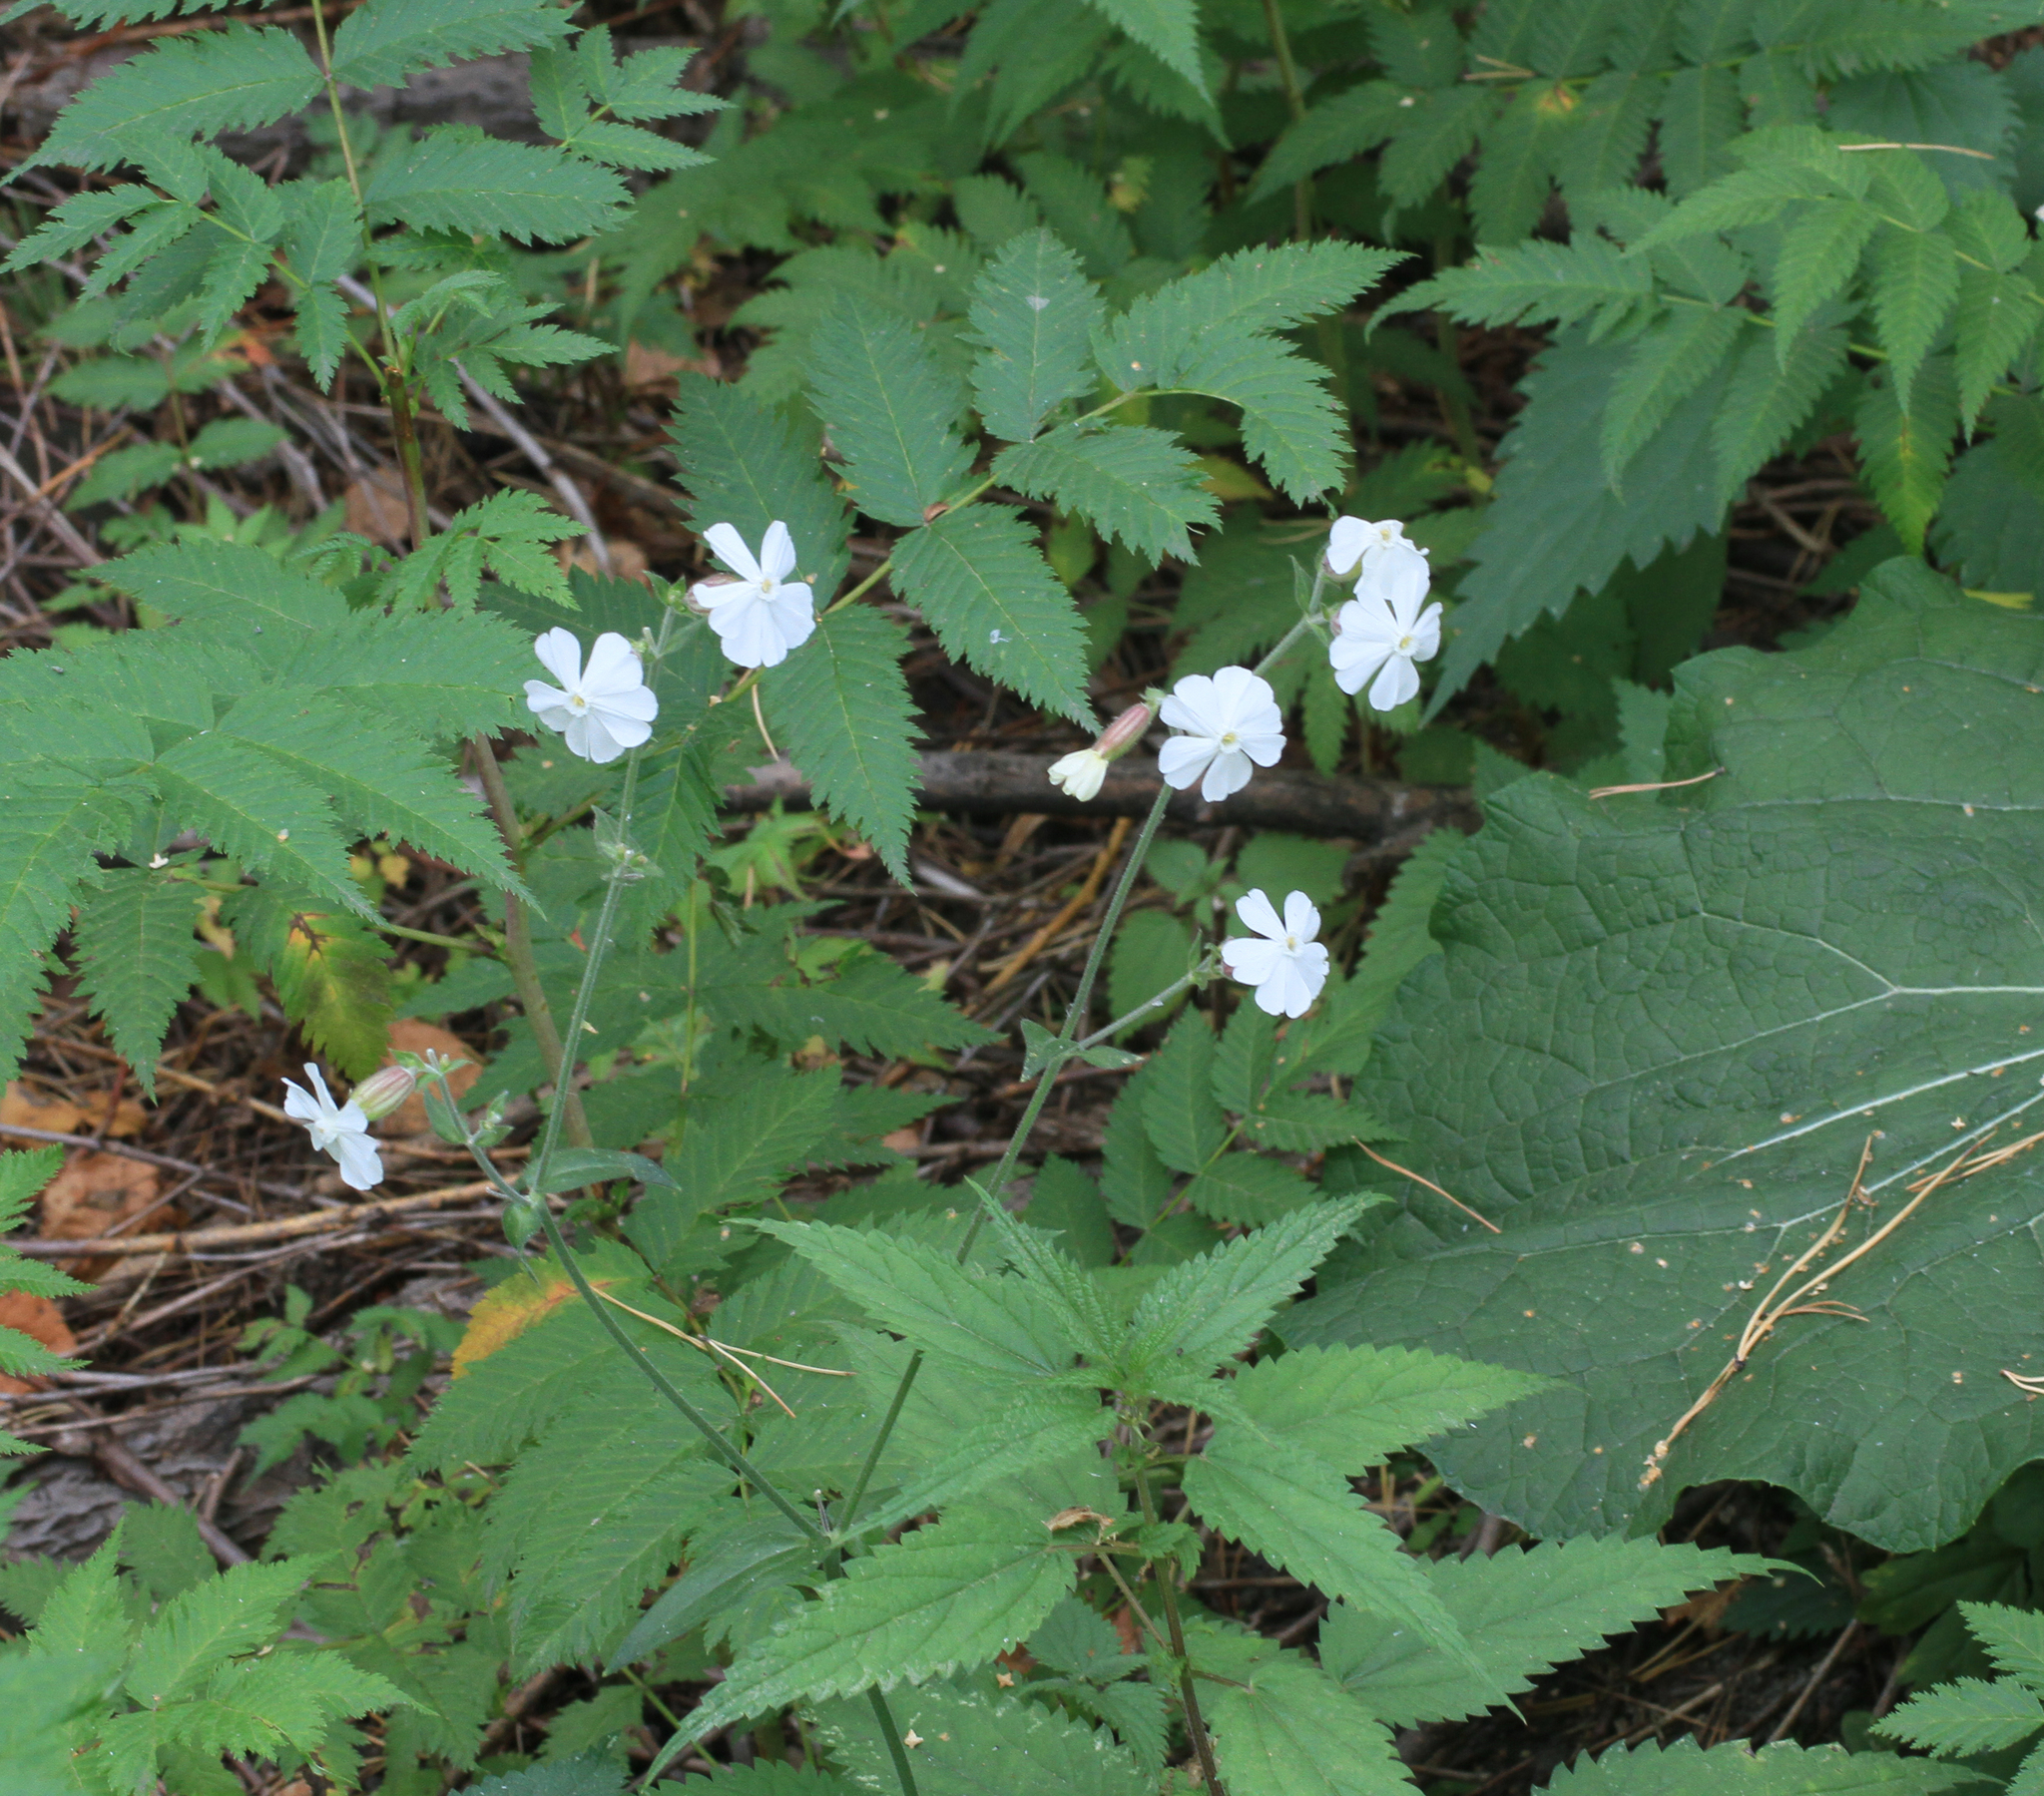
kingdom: Plantae
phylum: Tracheophyta
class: Magnoliopsida
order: Caryophyllales
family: Caryophyllaceae
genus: Silene
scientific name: Silene latifolia
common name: White campion
